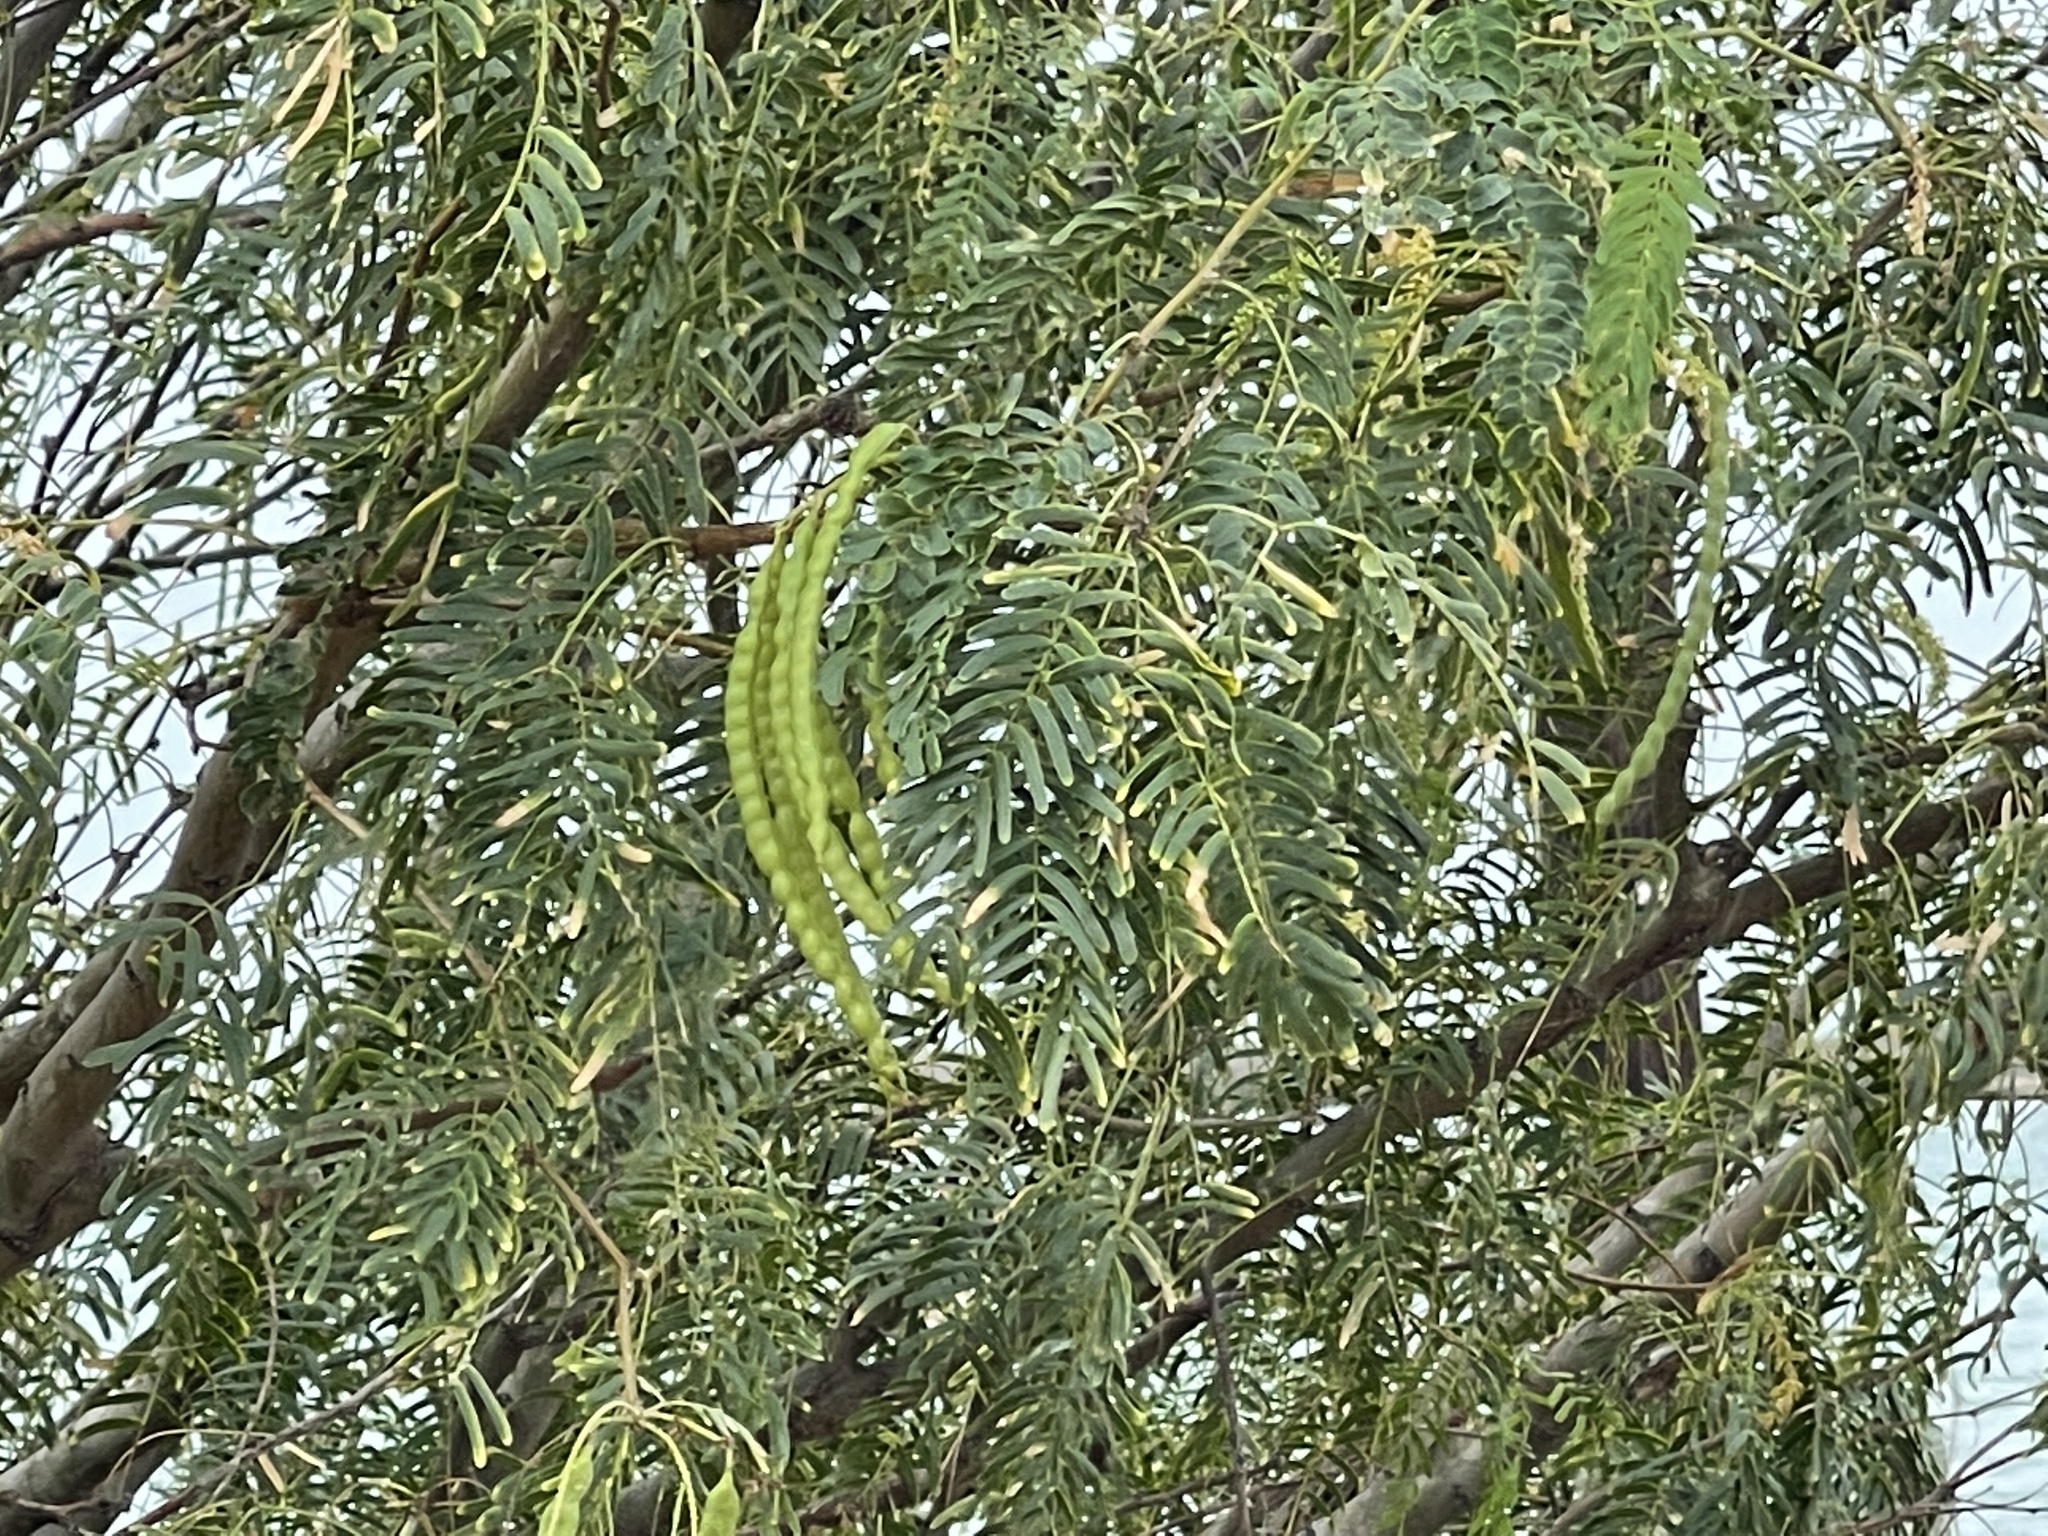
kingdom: Plantae
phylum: Tracheophyta
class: Magnoliopsida
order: Fabales
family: Fabaceae
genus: Prosopis
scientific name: Prosopis glandulosa
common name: Honey mesquite
